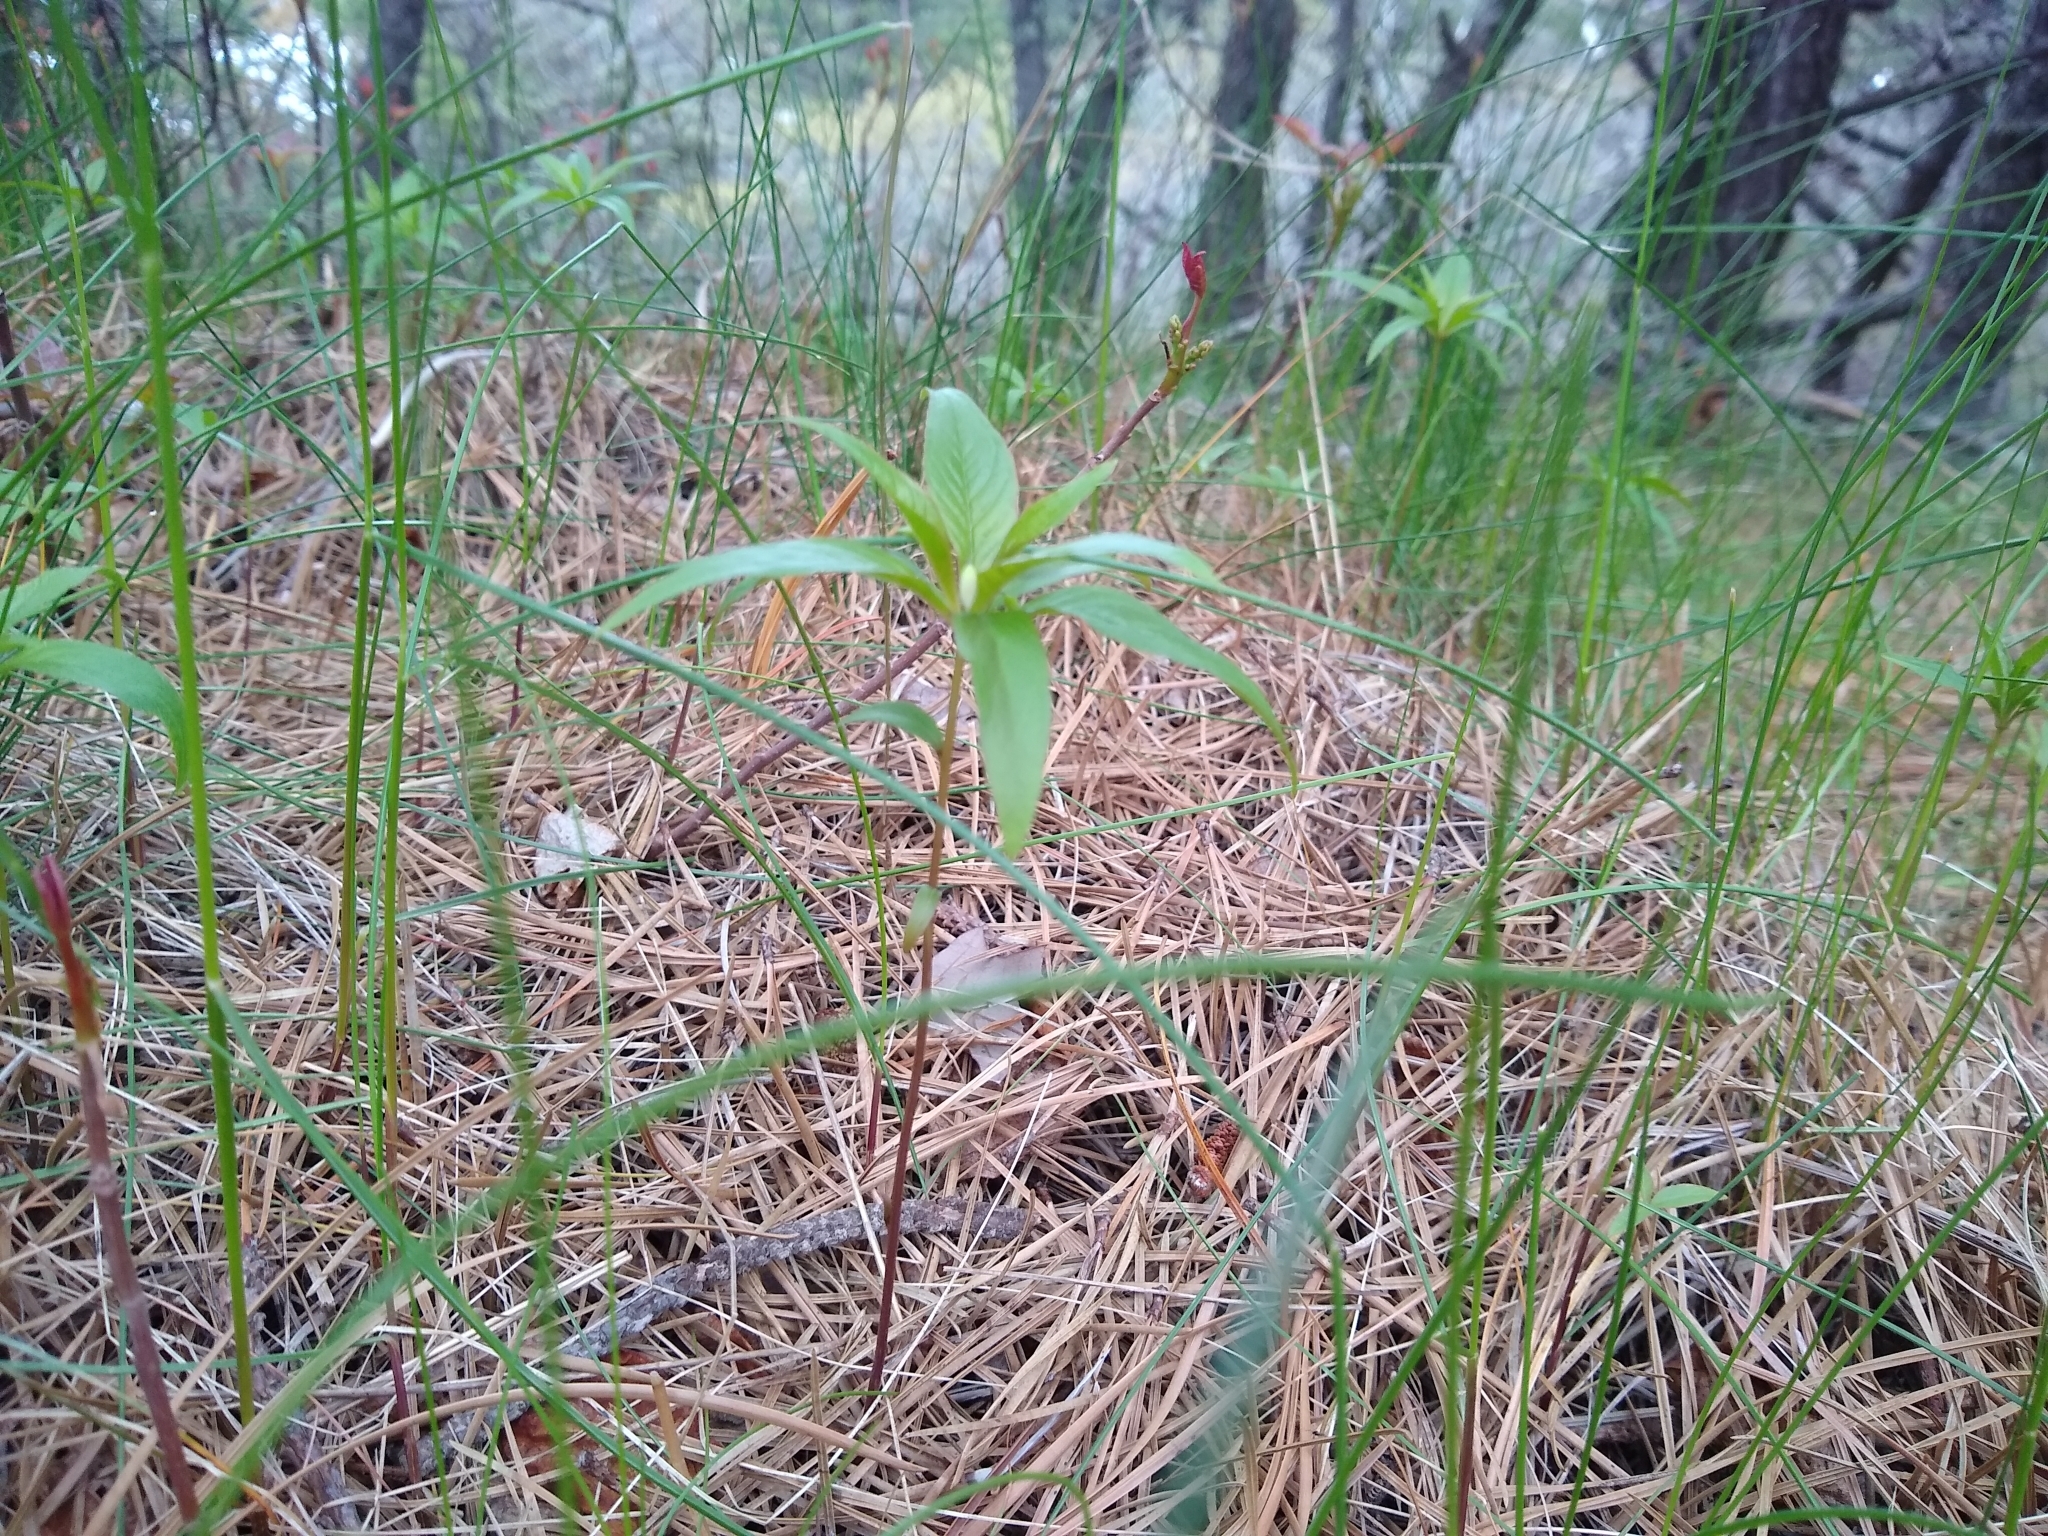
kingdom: Plantae
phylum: Tracheophyta
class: Magnoliopsida
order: Ericales
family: Primulaceae
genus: Lysimachia
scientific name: Lysimachia borealis
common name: American starflower
